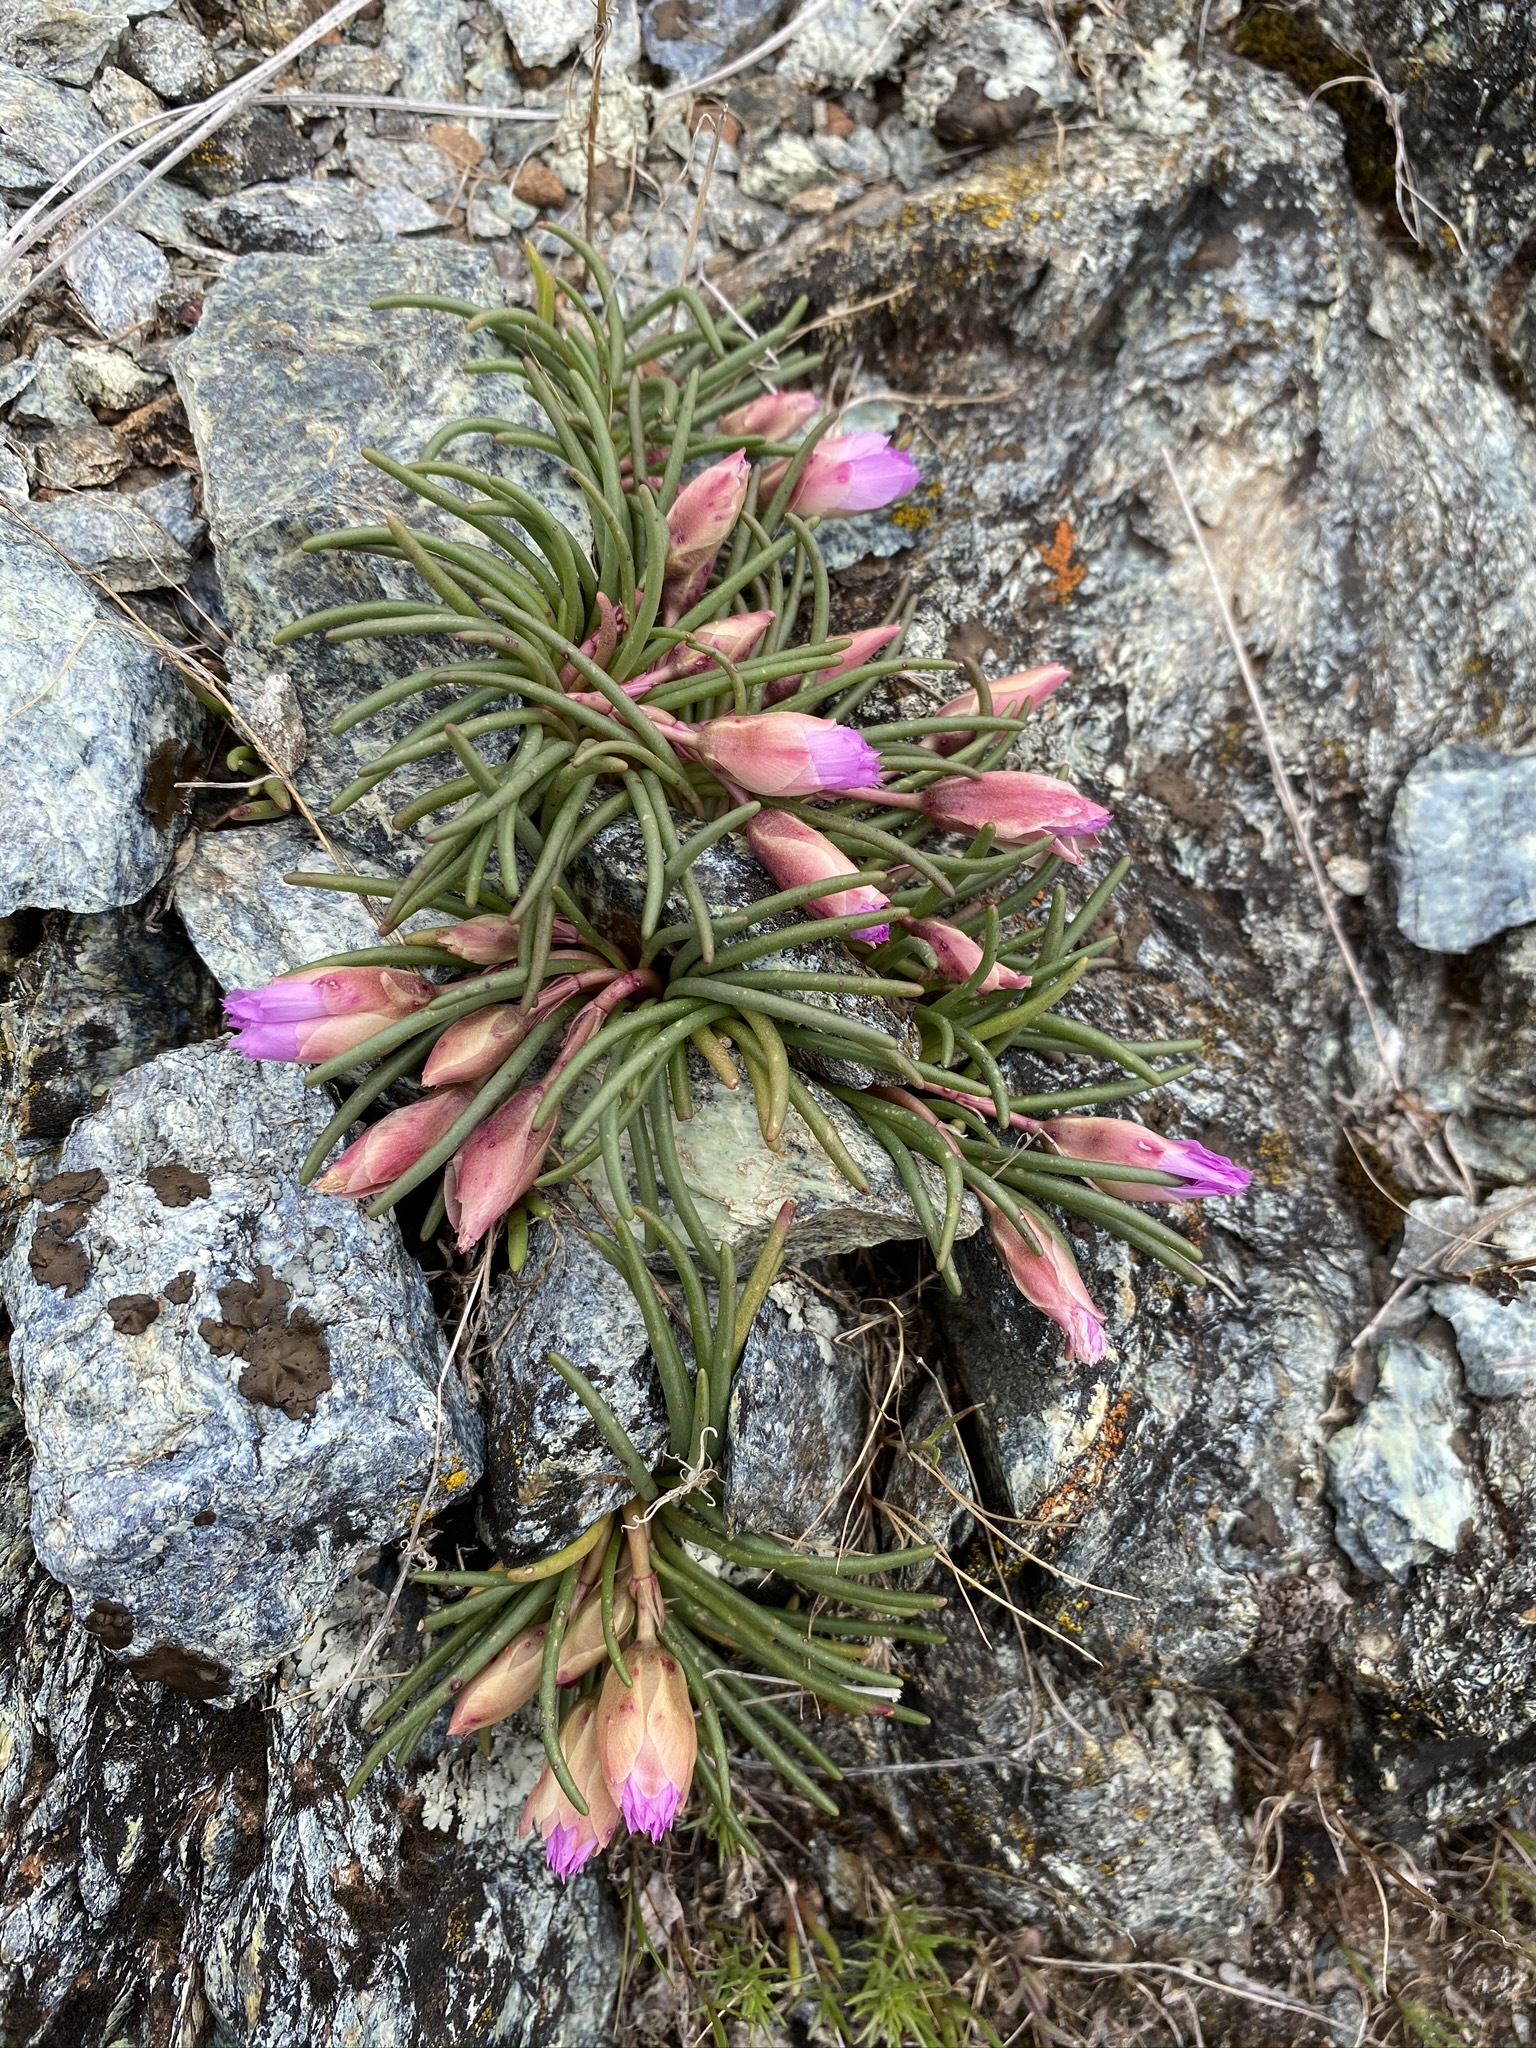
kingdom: Plantae
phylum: Tracheophyta
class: Magnoliopsida
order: Caryophyllales
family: Montiaceae
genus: Lewisia
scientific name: Lewisia rediviva
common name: Bitter-root
